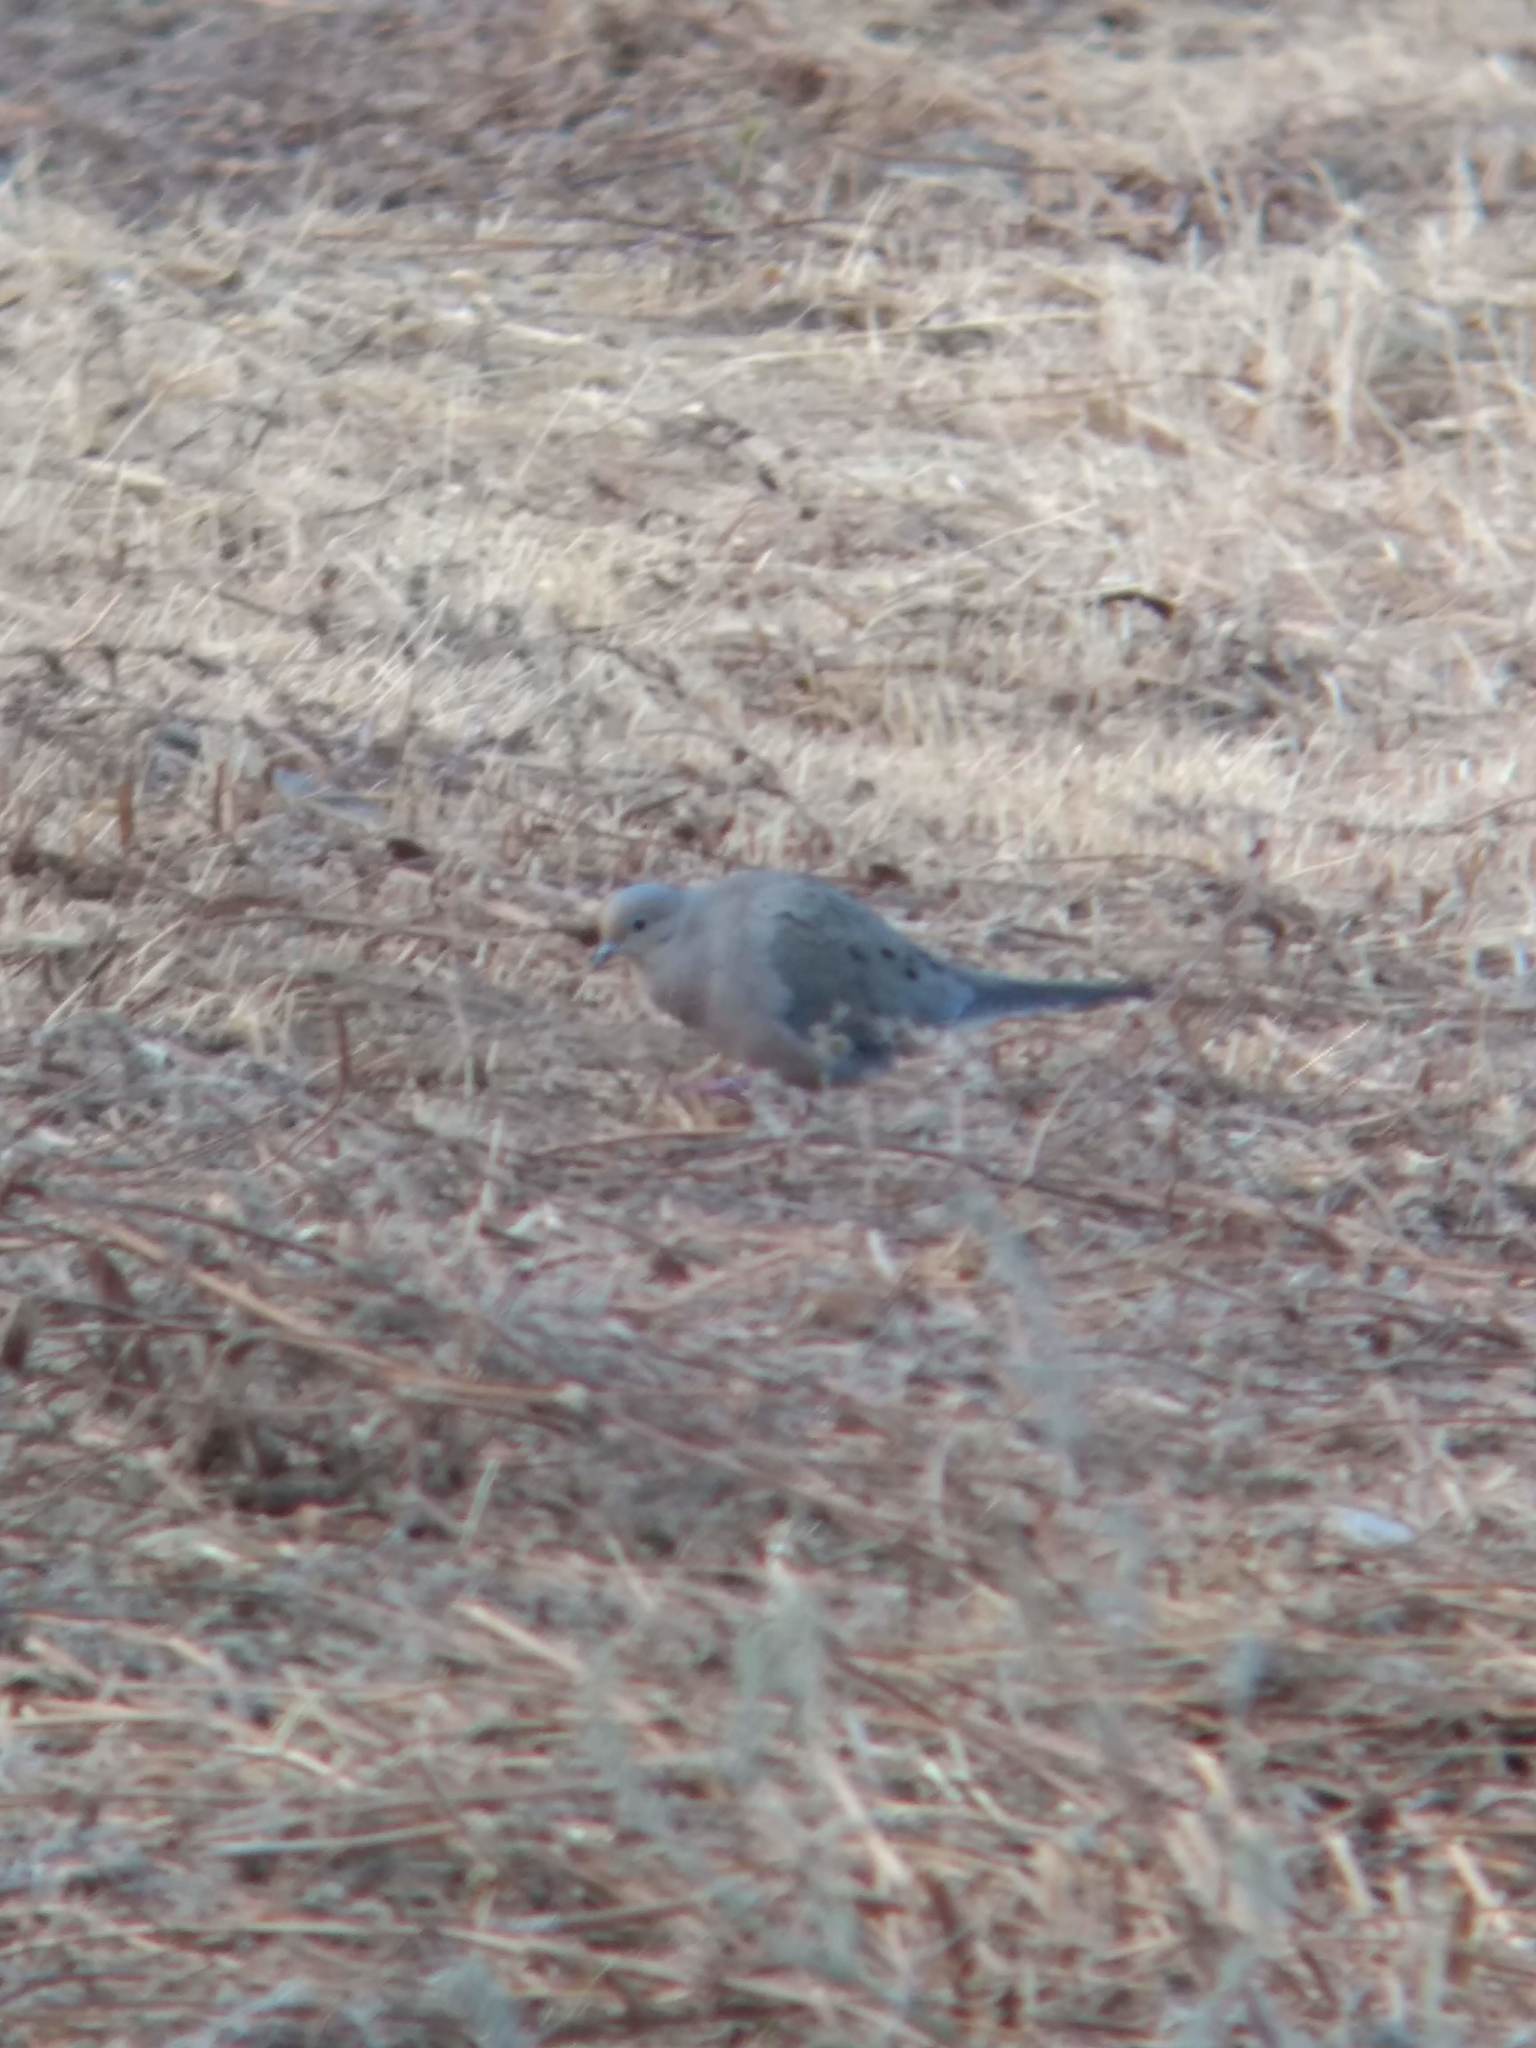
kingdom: Animalia
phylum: Chordata
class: Aves
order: Columbiformes
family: Columbidae
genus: Zenaida
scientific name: Zenaida macroura
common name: Mourning dove
